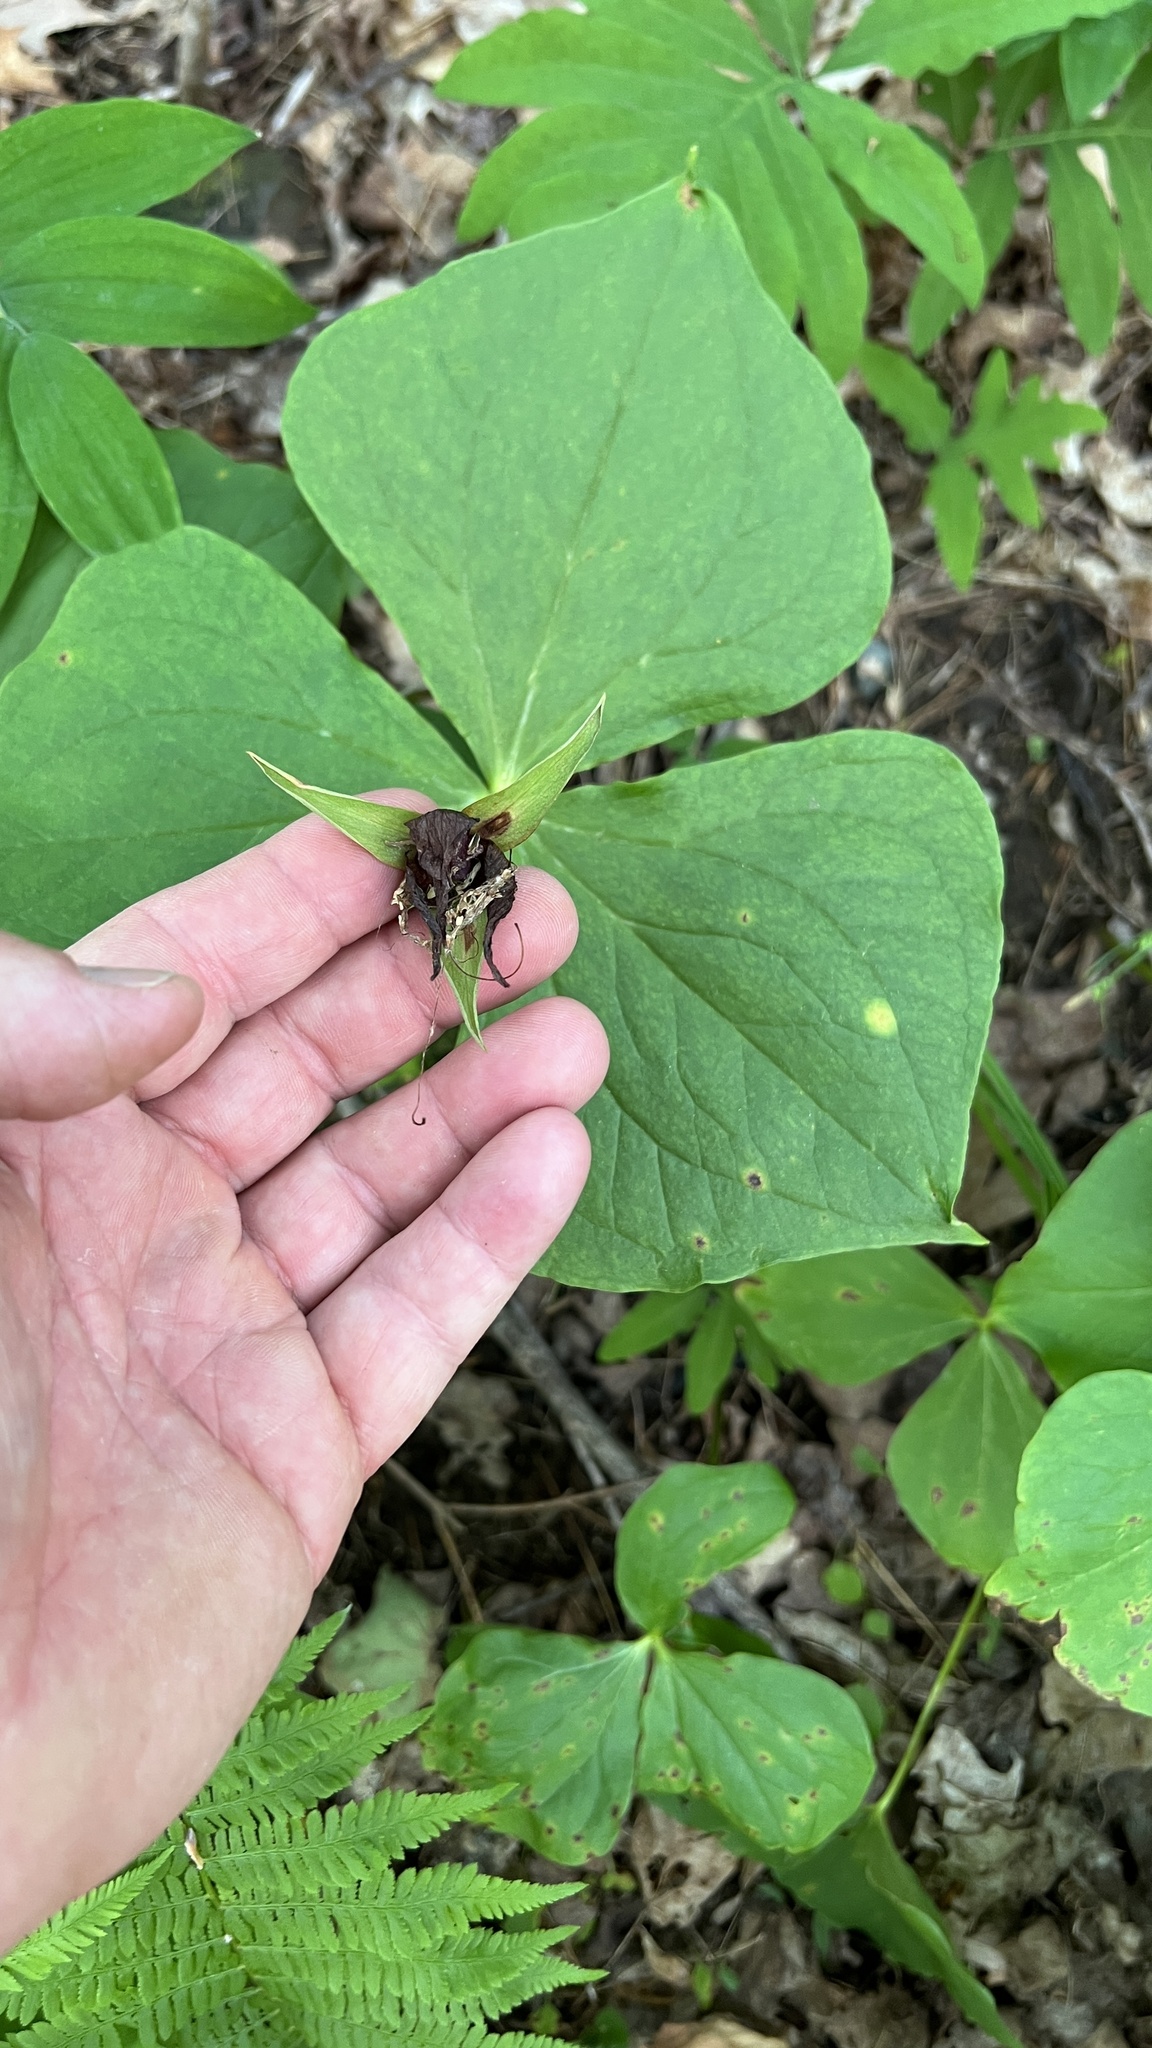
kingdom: Plantae
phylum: Tracheophyta
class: Liliopsida
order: Liliales
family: Melanthiaceae
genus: Trillium
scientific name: Trillium erectum
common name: Purple trillium
